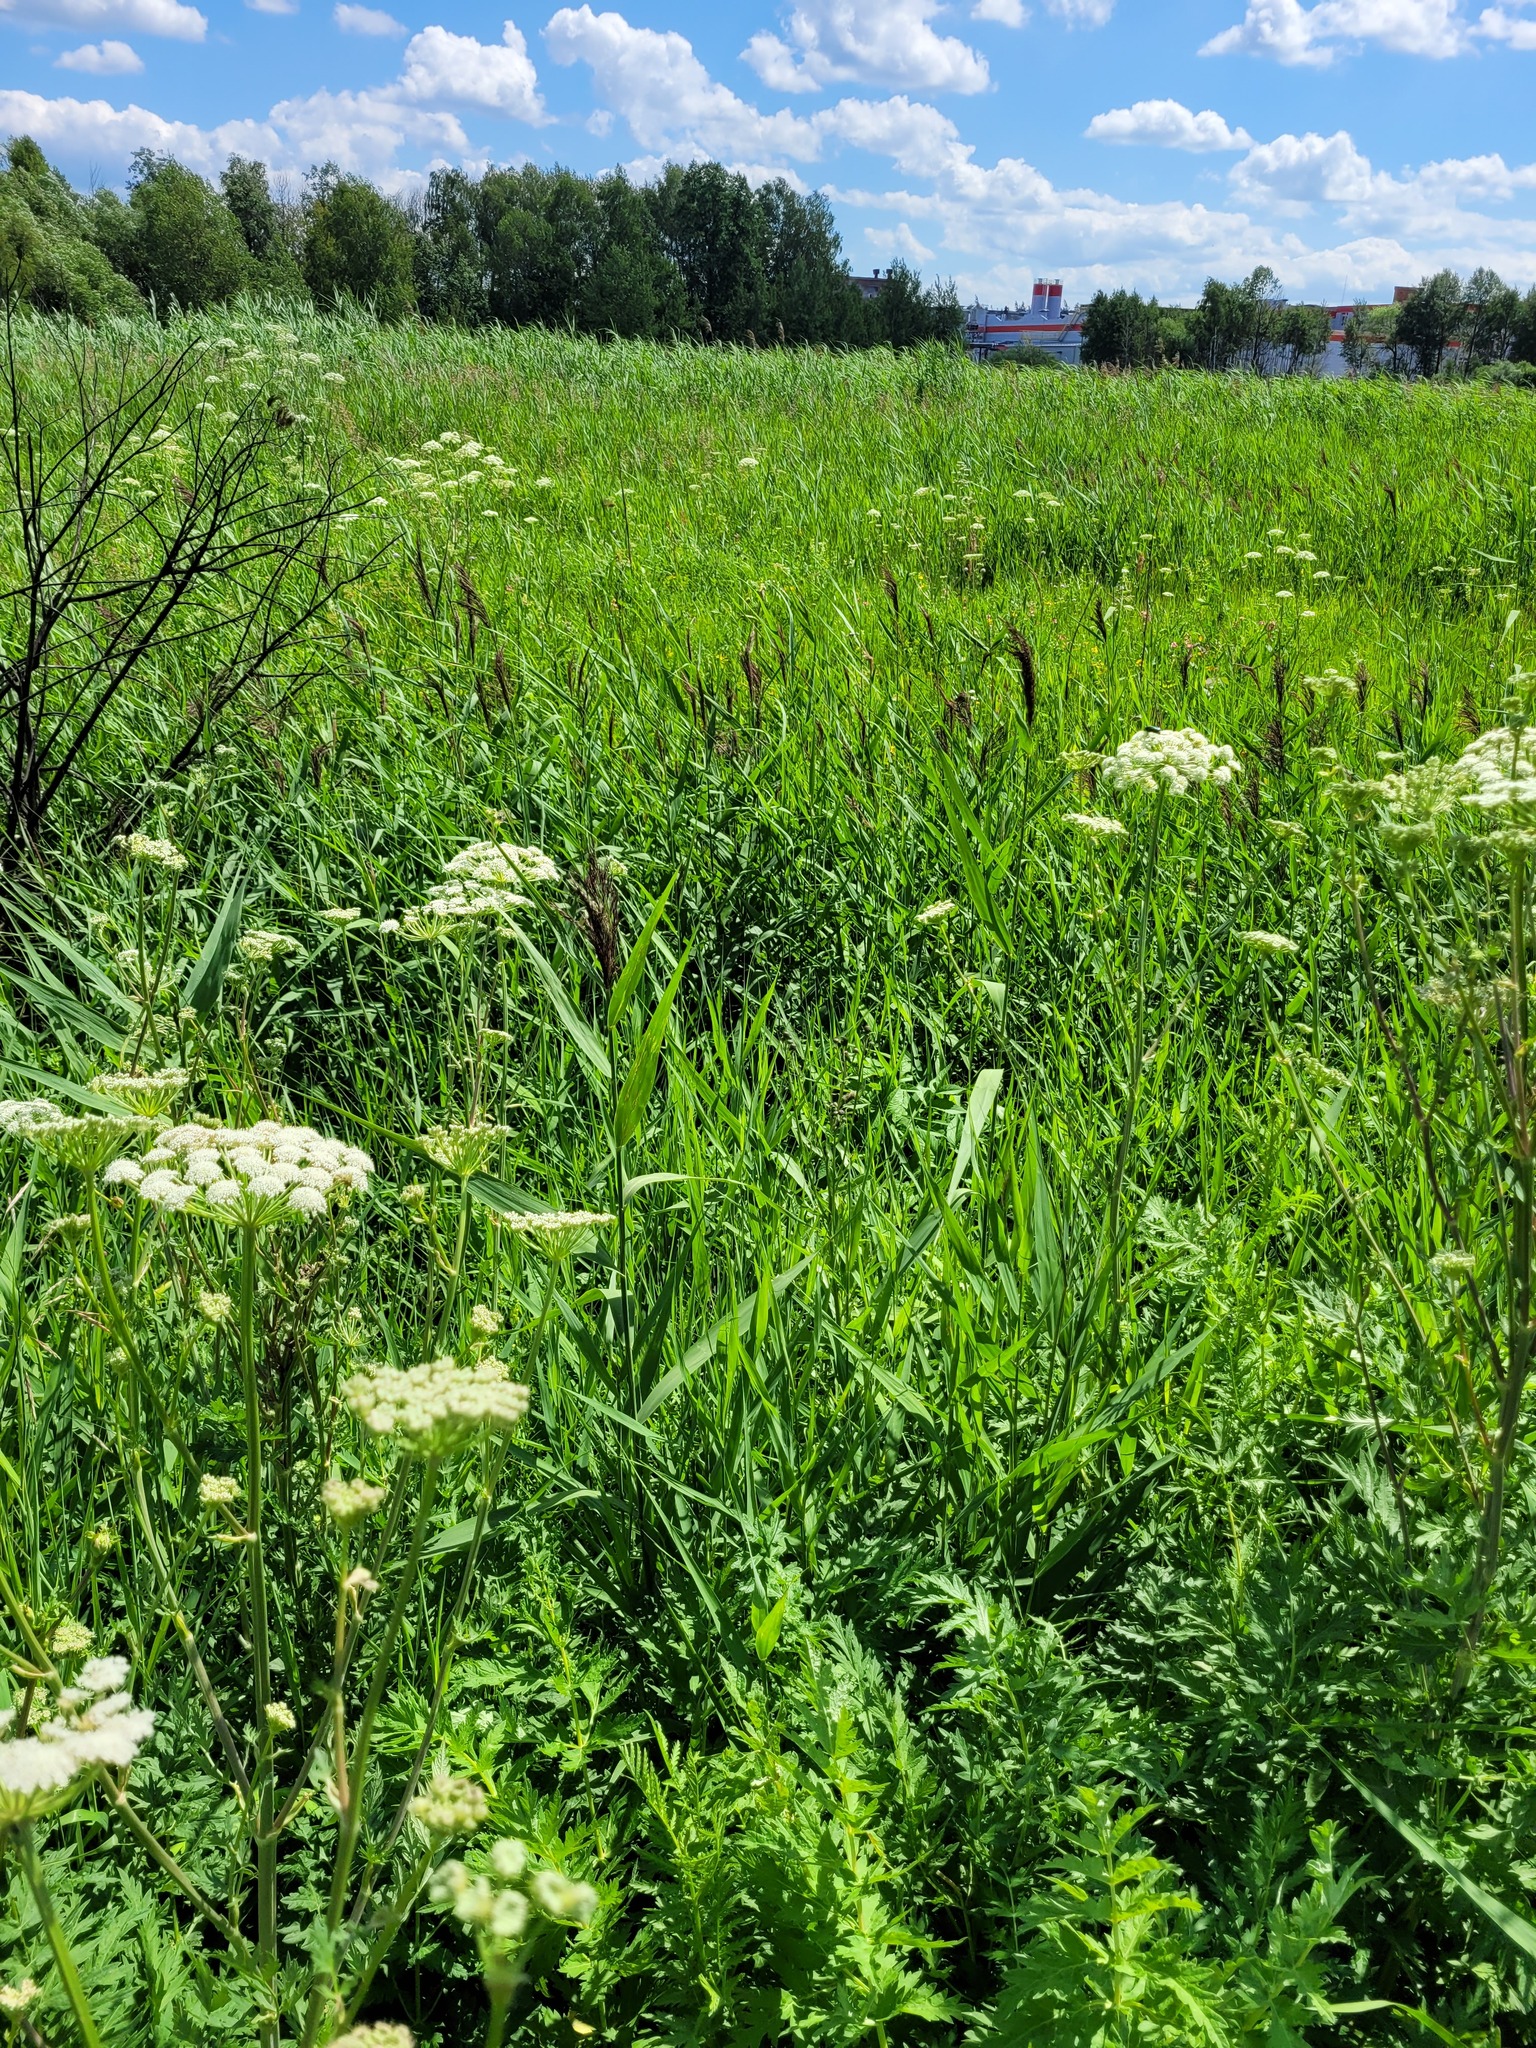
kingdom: Plantae
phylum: Tracheophyta
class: Liliopsida
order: Poales
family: Poaceae
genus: Phragmites
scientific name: Phragmites australis
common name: Common reed
